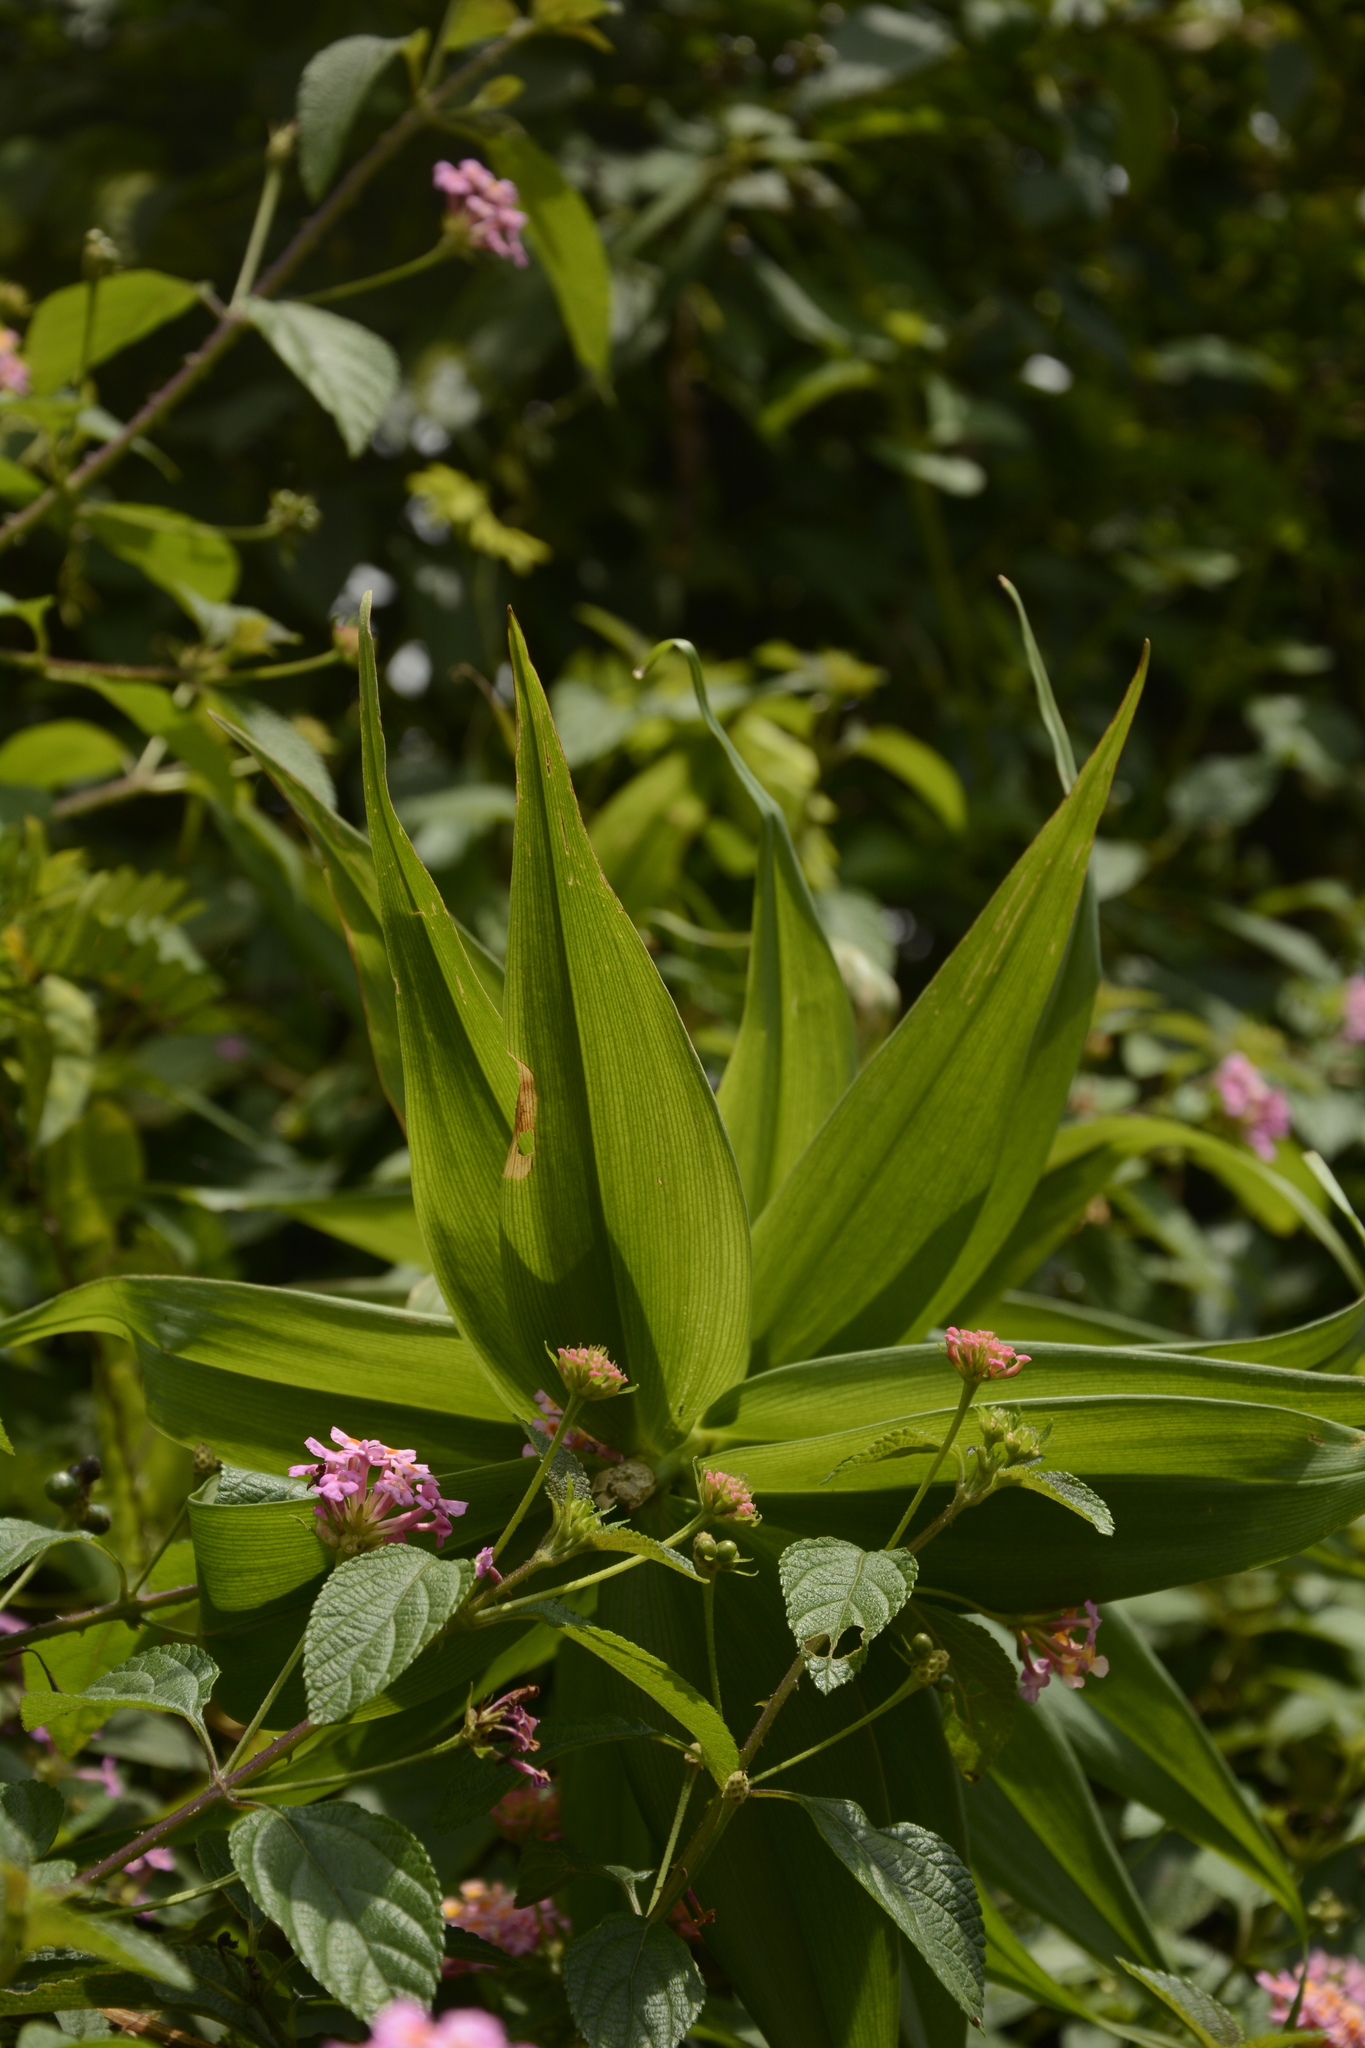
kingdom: Plantae
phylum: Tracheophyta
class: Liliopsida
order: Liliales
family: Colchicaceae
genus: Gloriosa
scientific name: Gloriosa superba
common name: Flame lily
